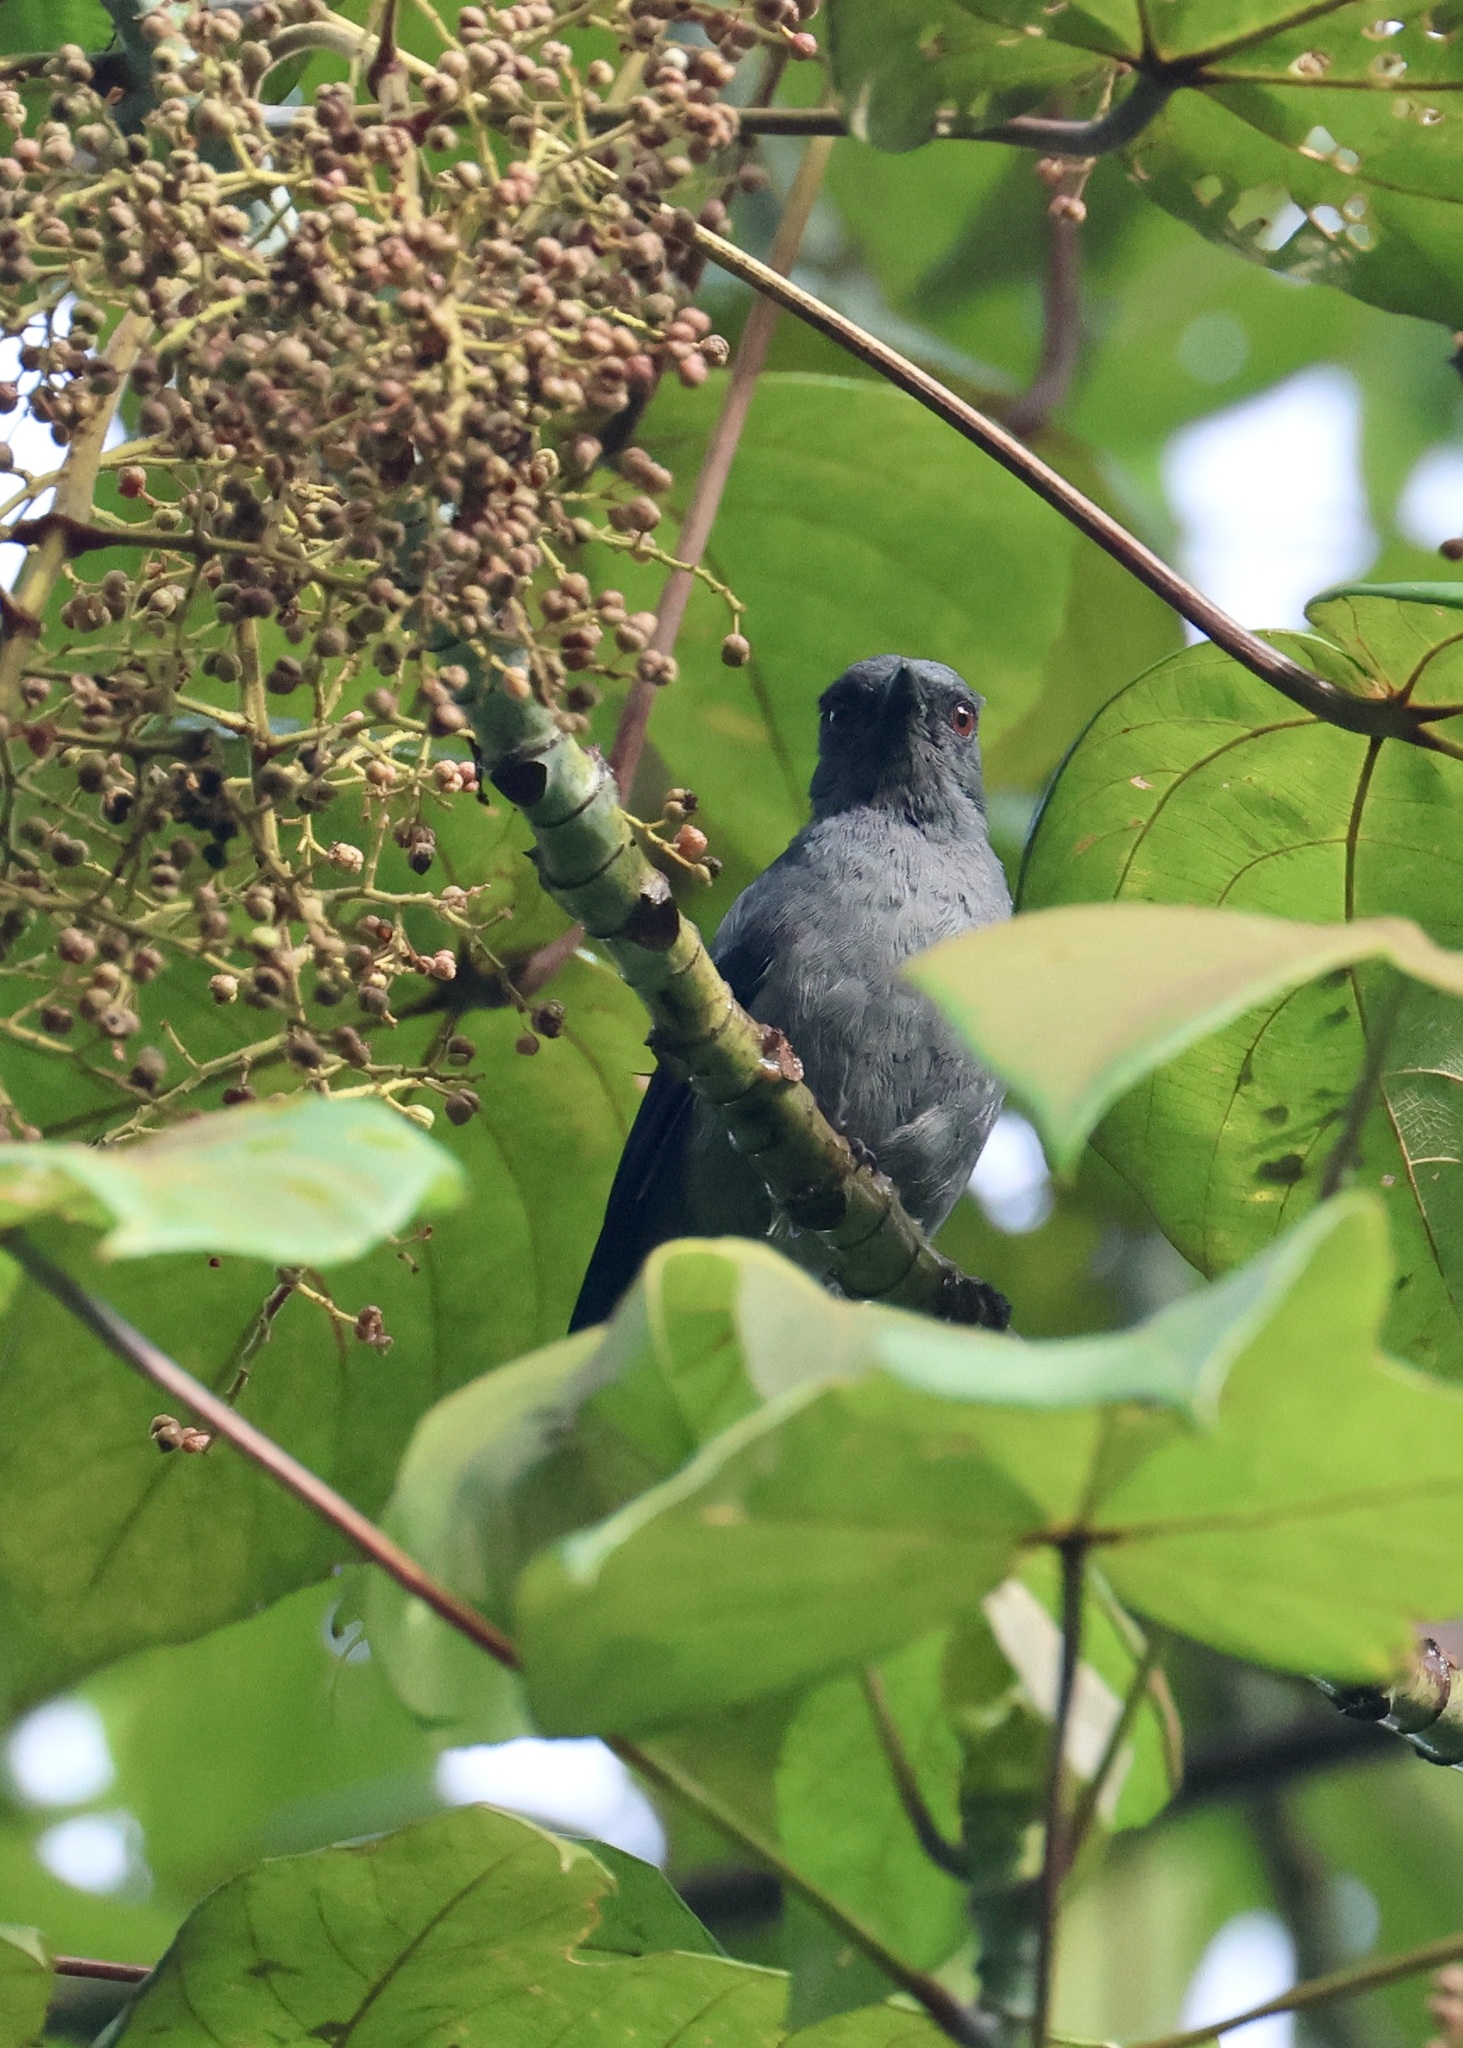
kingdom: Animalia
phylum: Chordata
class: Aves
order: Passeriformes
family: Campephagidae
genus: Coracina
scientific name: Coracina fimbriata
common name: Lesser cuckooshrike
